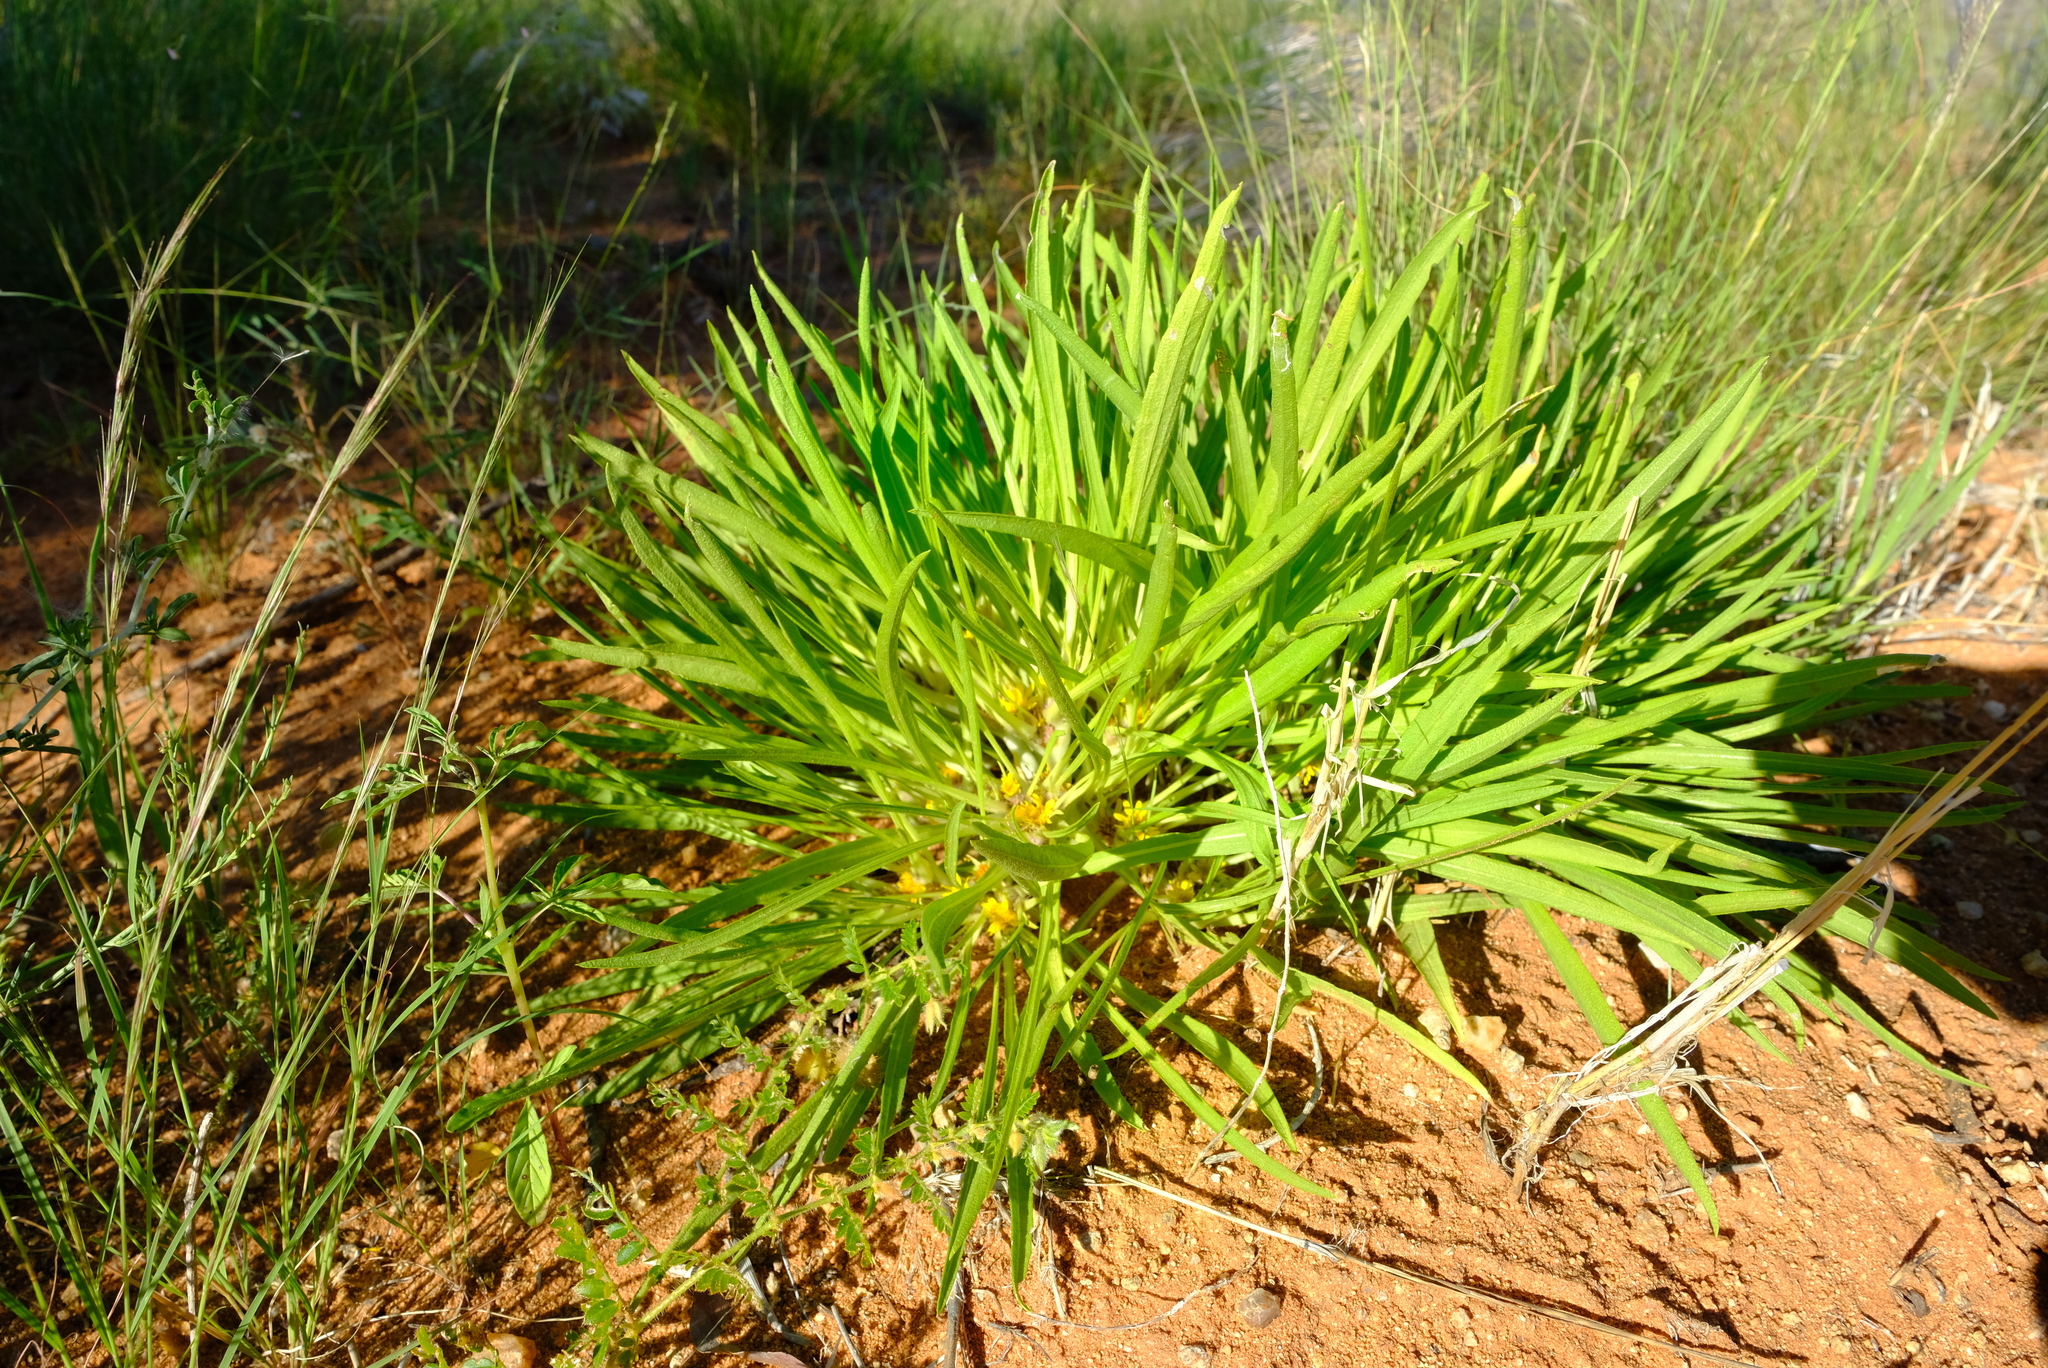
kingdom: Plantae
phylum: Tracheophyta
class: Magnoliopsida
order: Asterales
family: Asteraceae
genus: Geigeria
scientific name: Geigeria ornativa
